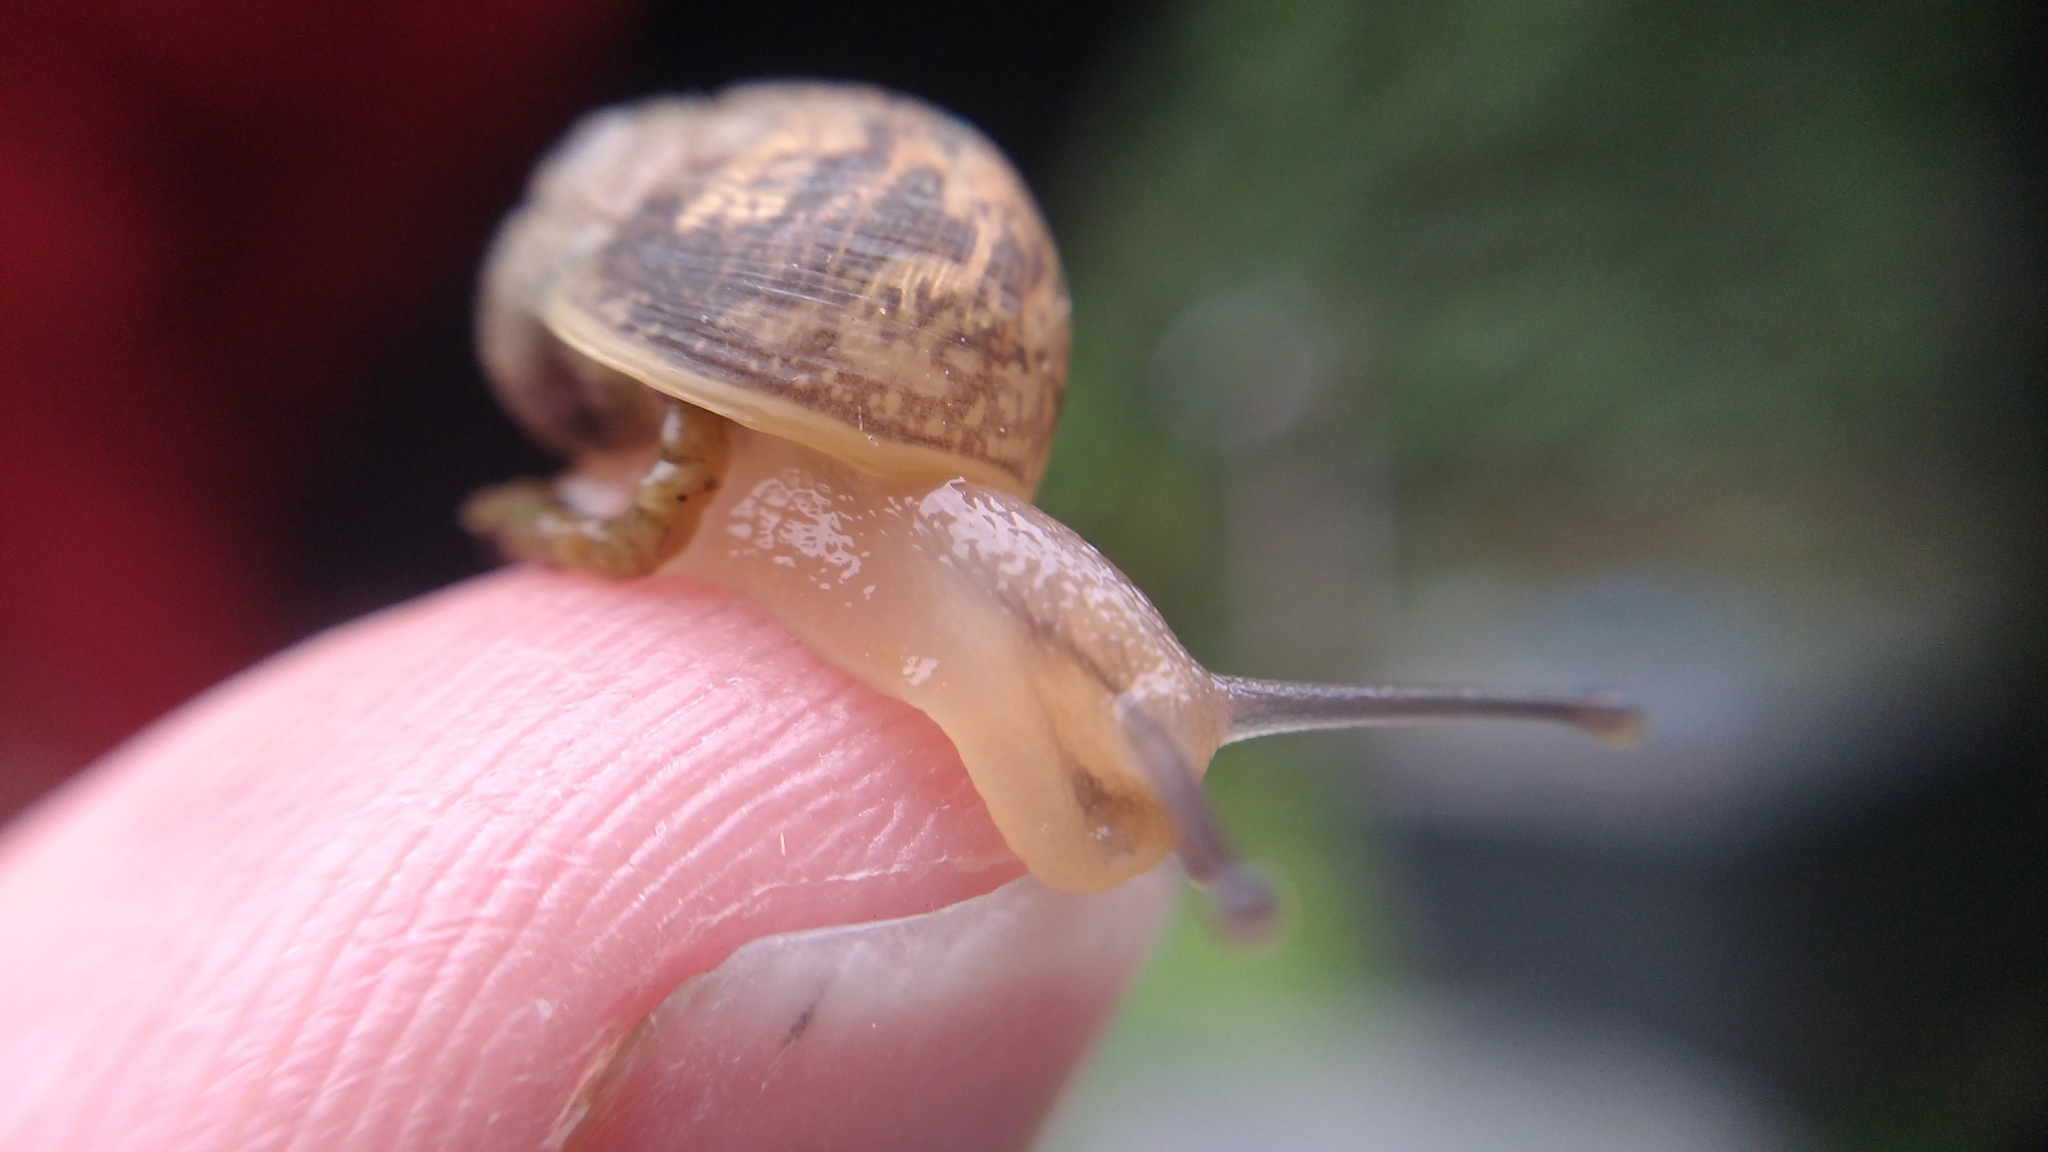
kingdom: Animalia
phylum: Mollusca
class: Gastropoda
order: Stylommatophora
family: Helicidae
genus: Cornu
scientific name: Cornu aspersum
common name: Brown garden snail
